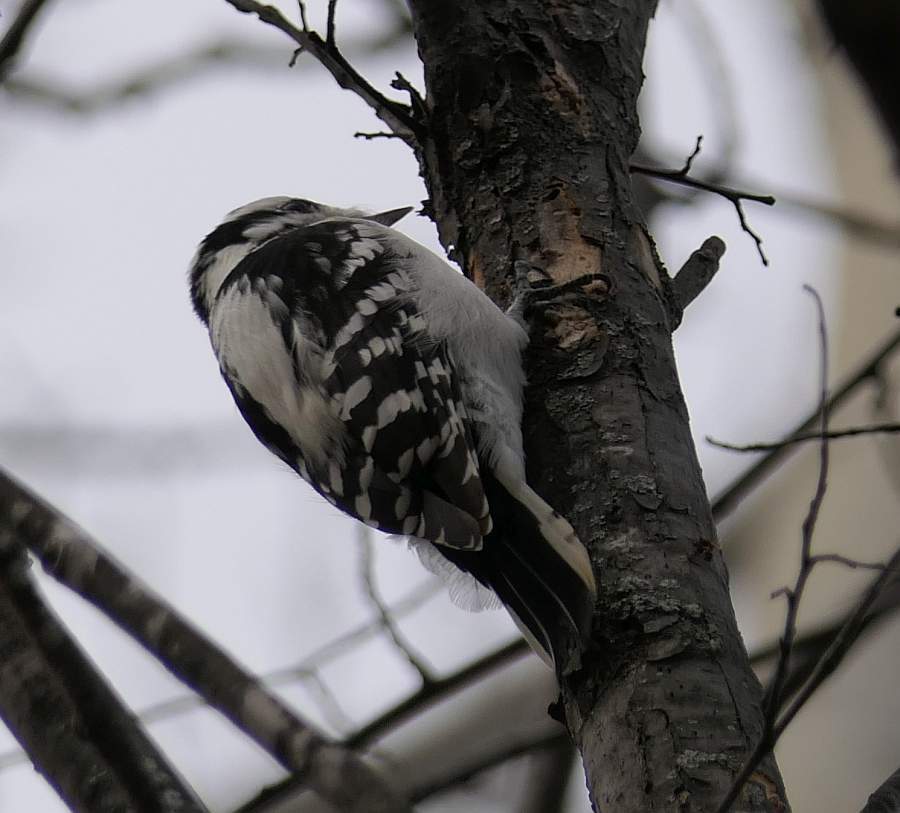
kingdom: Animalia
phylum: Chordata
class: Aves
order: Piciformes
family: Picidae
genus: Dryobates
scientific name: Dryobates pubescens
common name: Downy woodpecker
